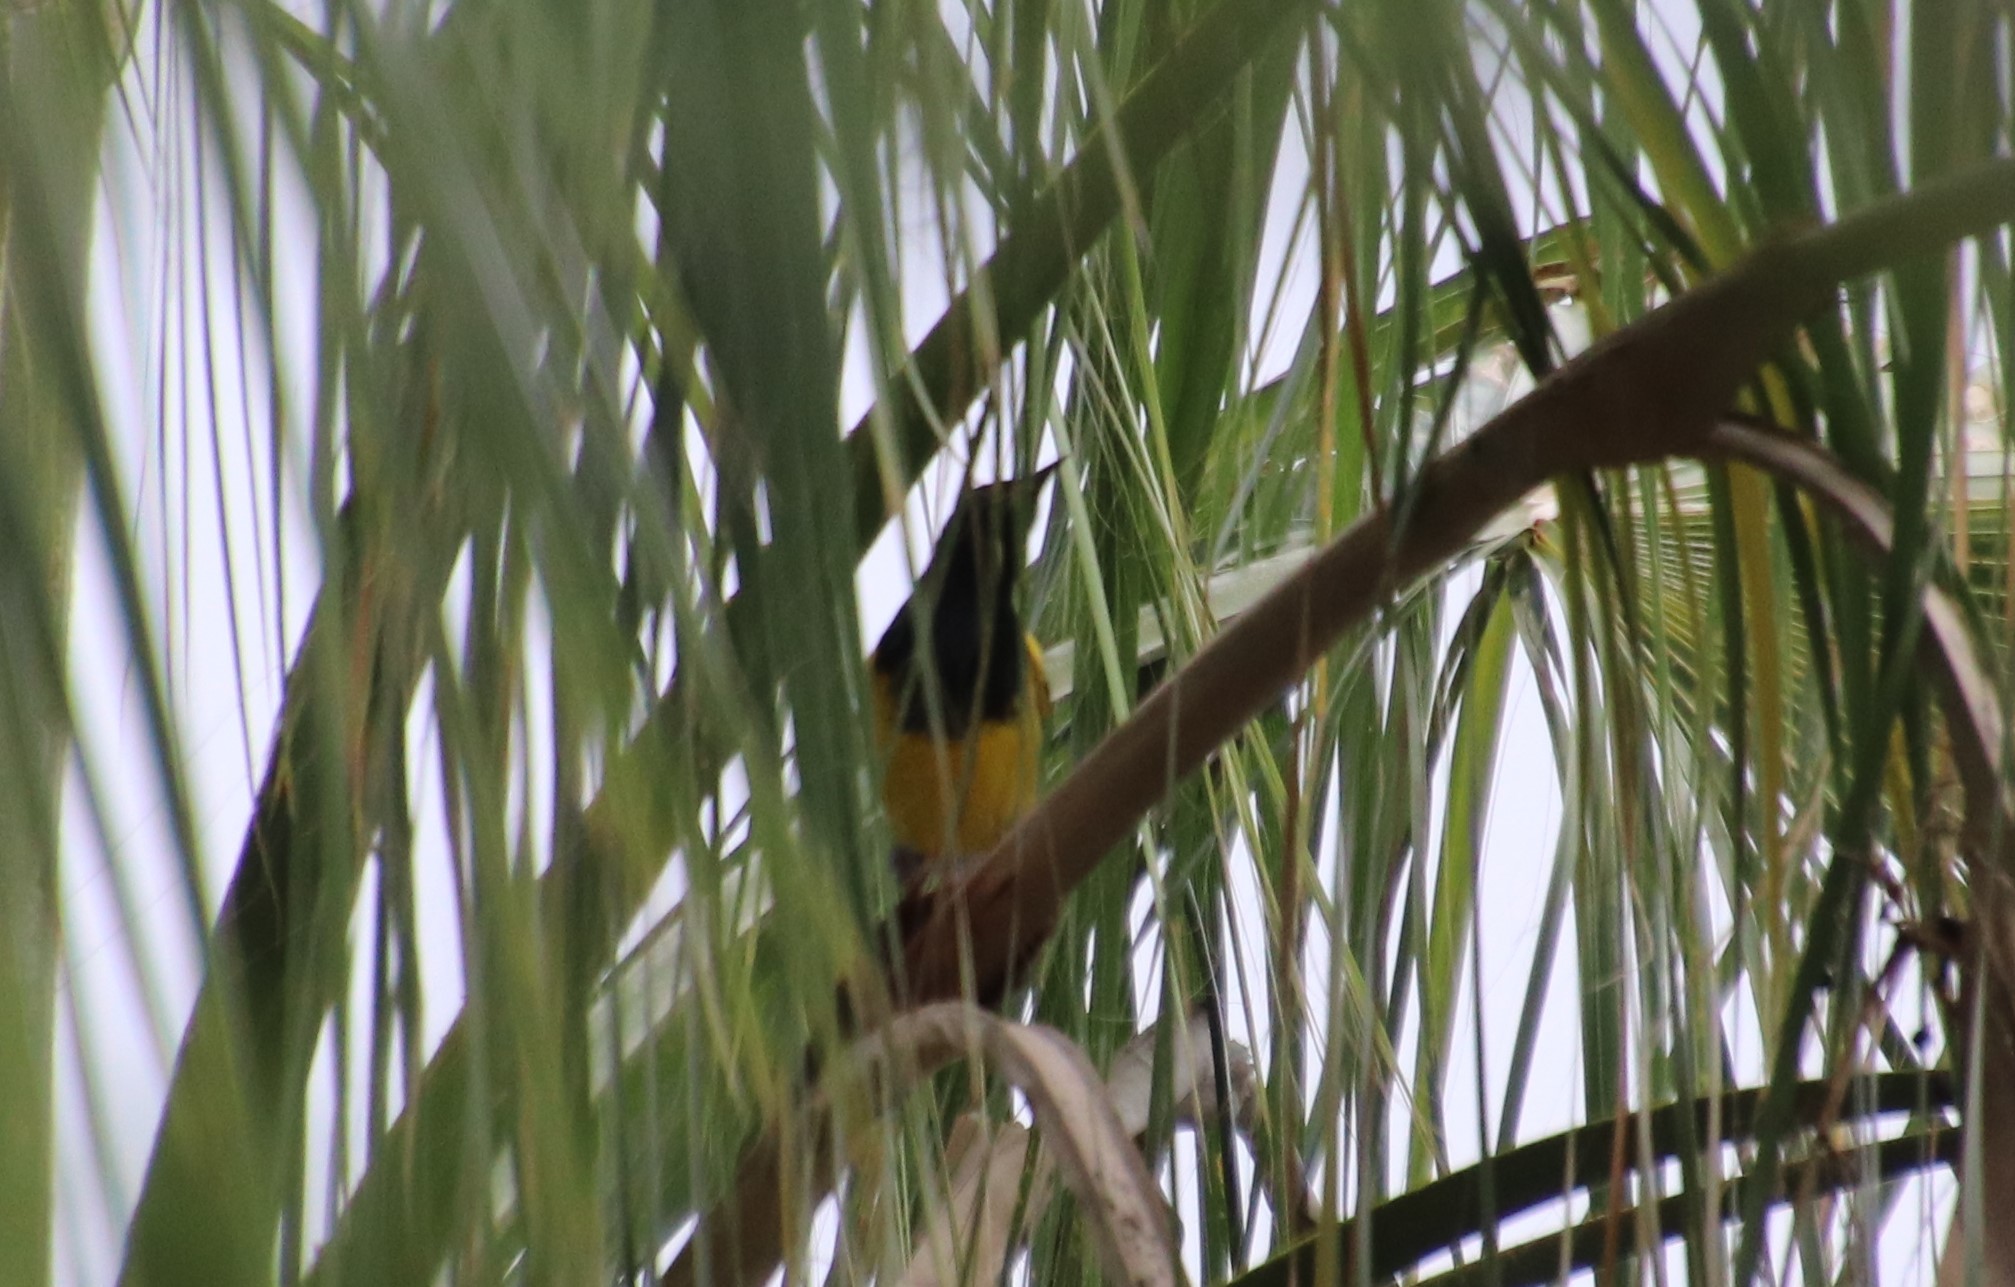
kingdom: Animalia
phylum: Chordata
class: Aves
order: Passeriformes
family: Icteridae
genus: Icterus
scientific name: Icterus parisorum
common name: Scott's oriole
